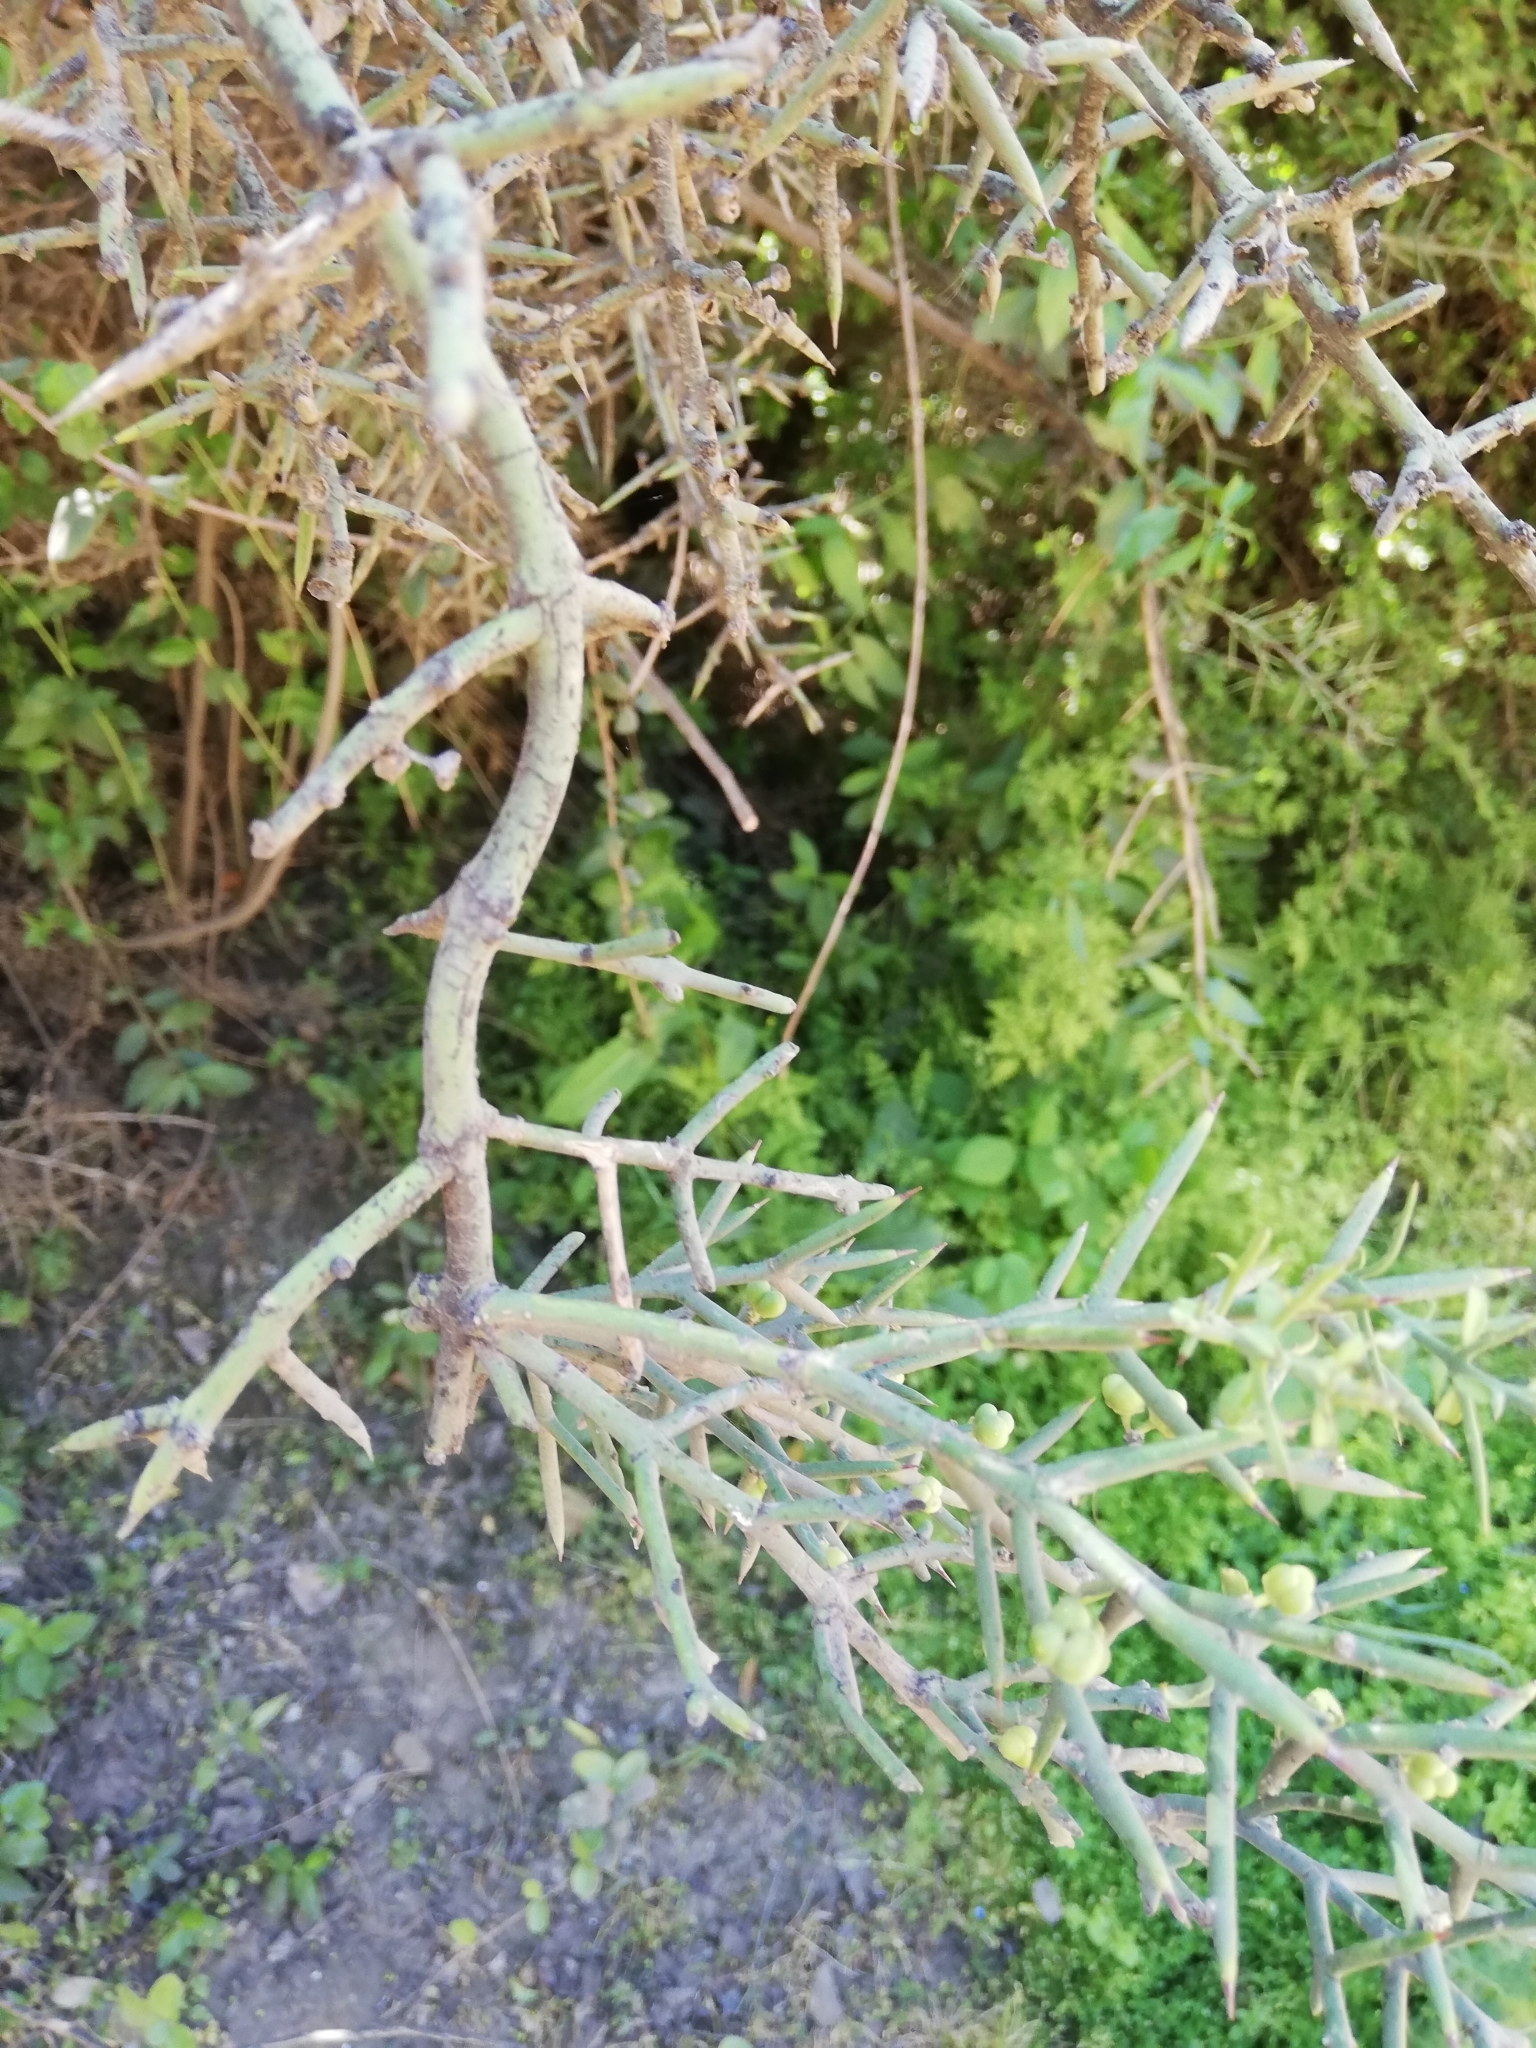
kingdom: Plantae
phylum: Tracheophyta
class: Magnoliopsida
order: Rosales
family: Rhamnaceae
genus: Colletia
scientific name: Colletia hystrix
